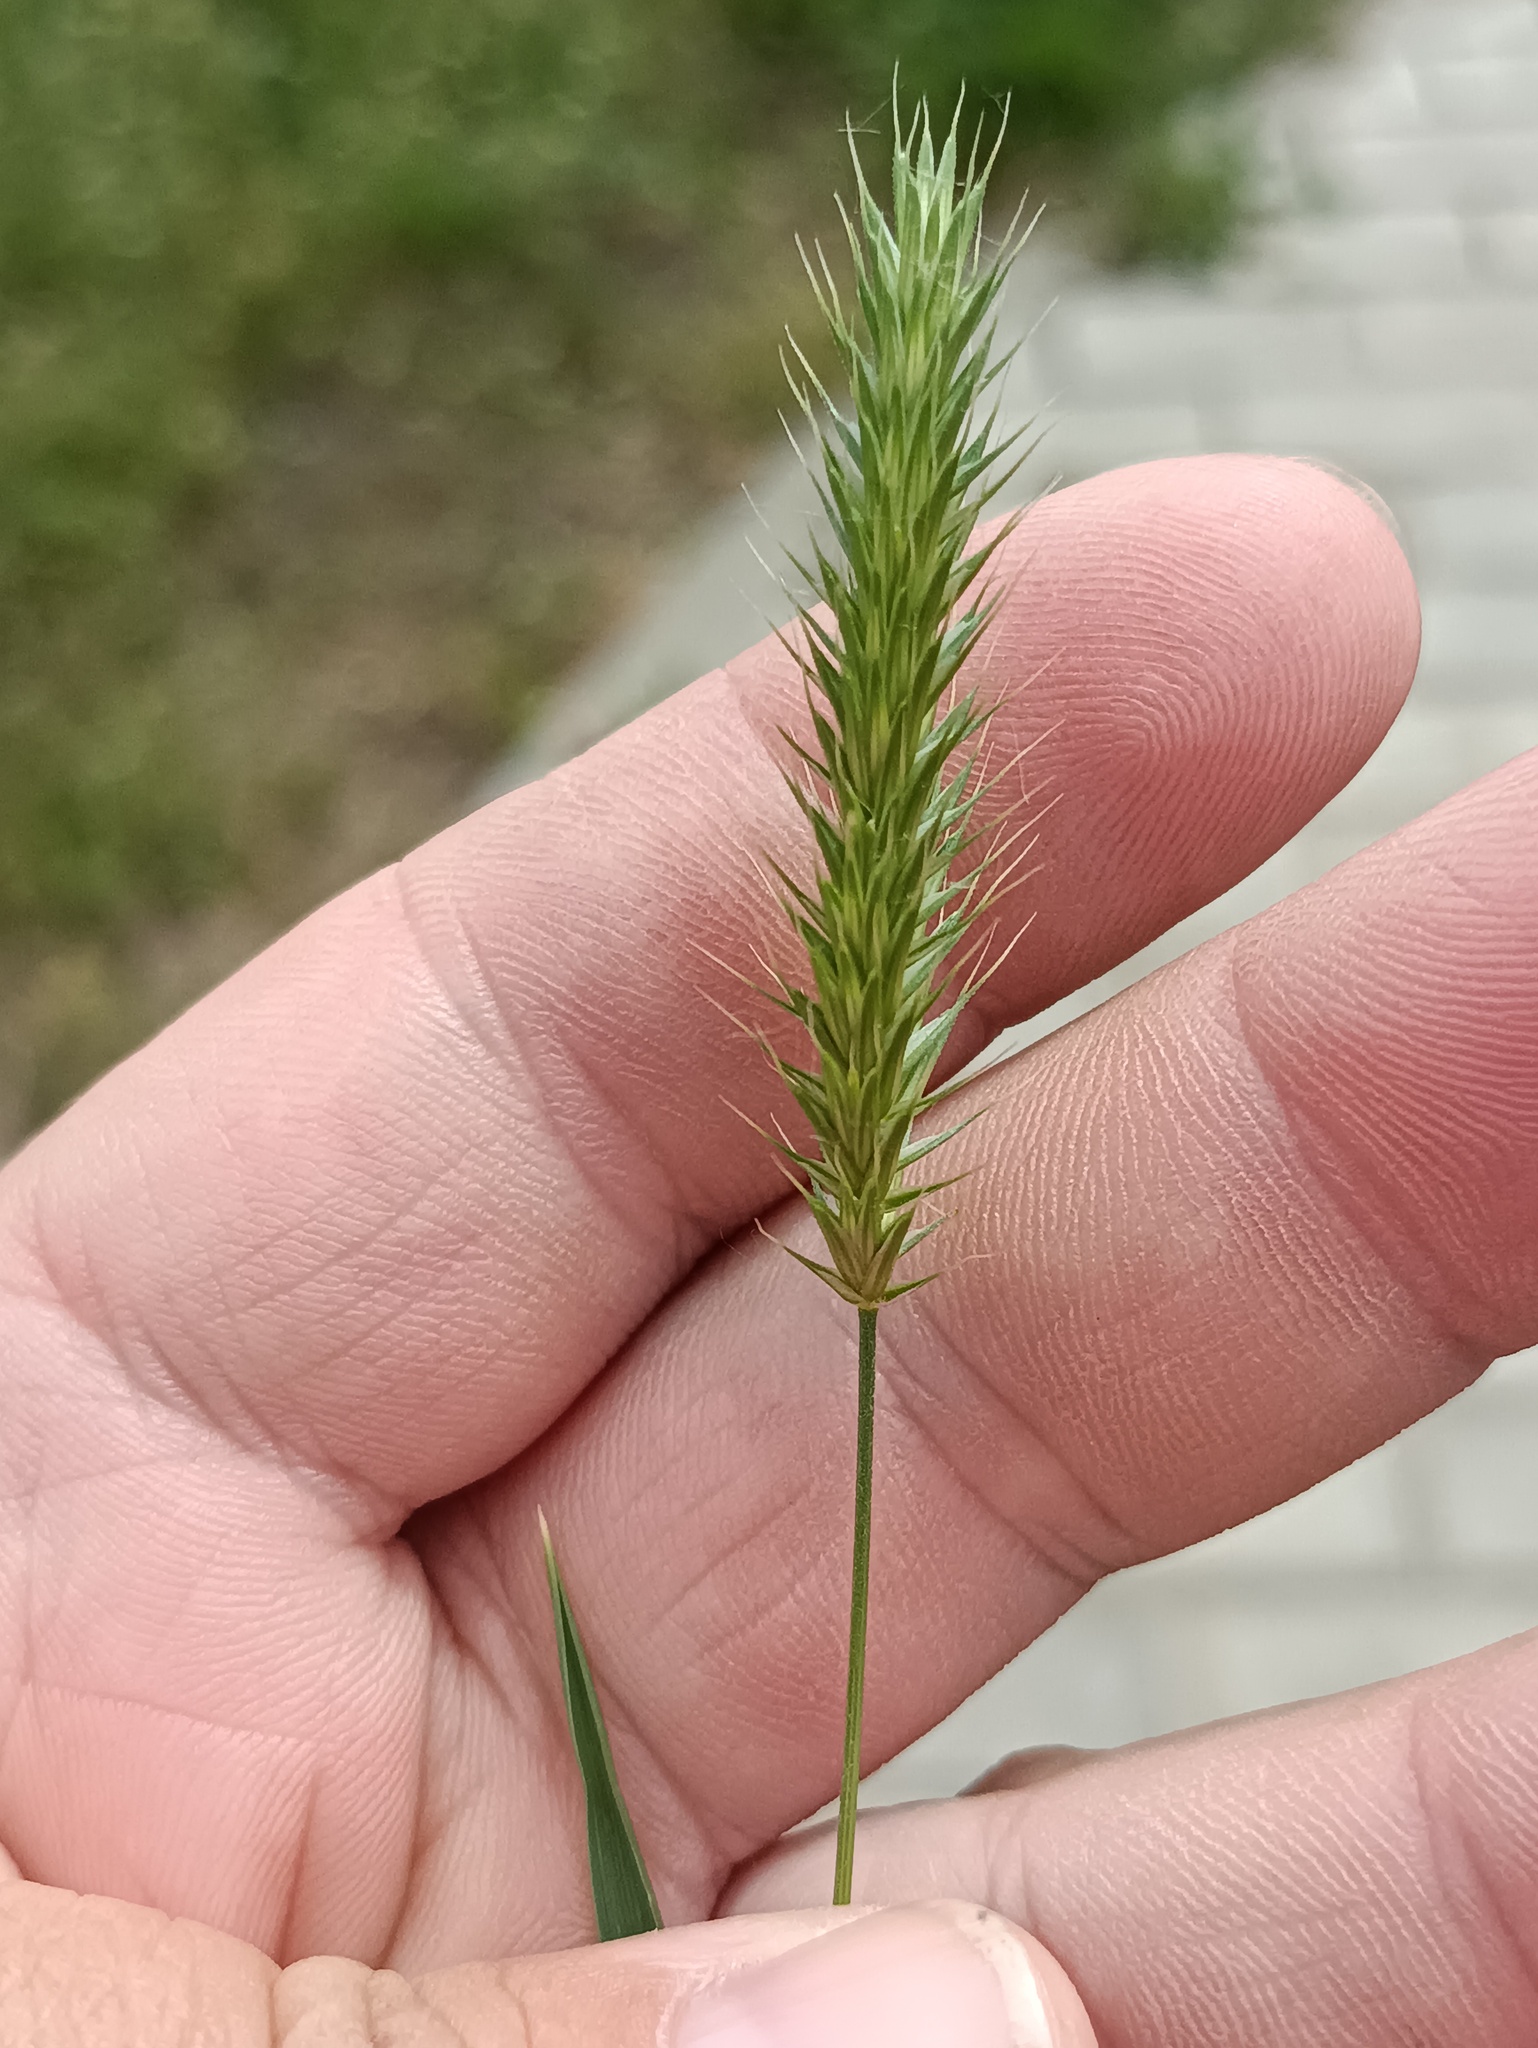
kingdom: Plantae
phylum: Tracheophyta
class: Liliopsida
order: Poales
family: Poaceae
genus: Agropyron
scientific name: Agropyron cristatum
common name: Crested wheatgrass
